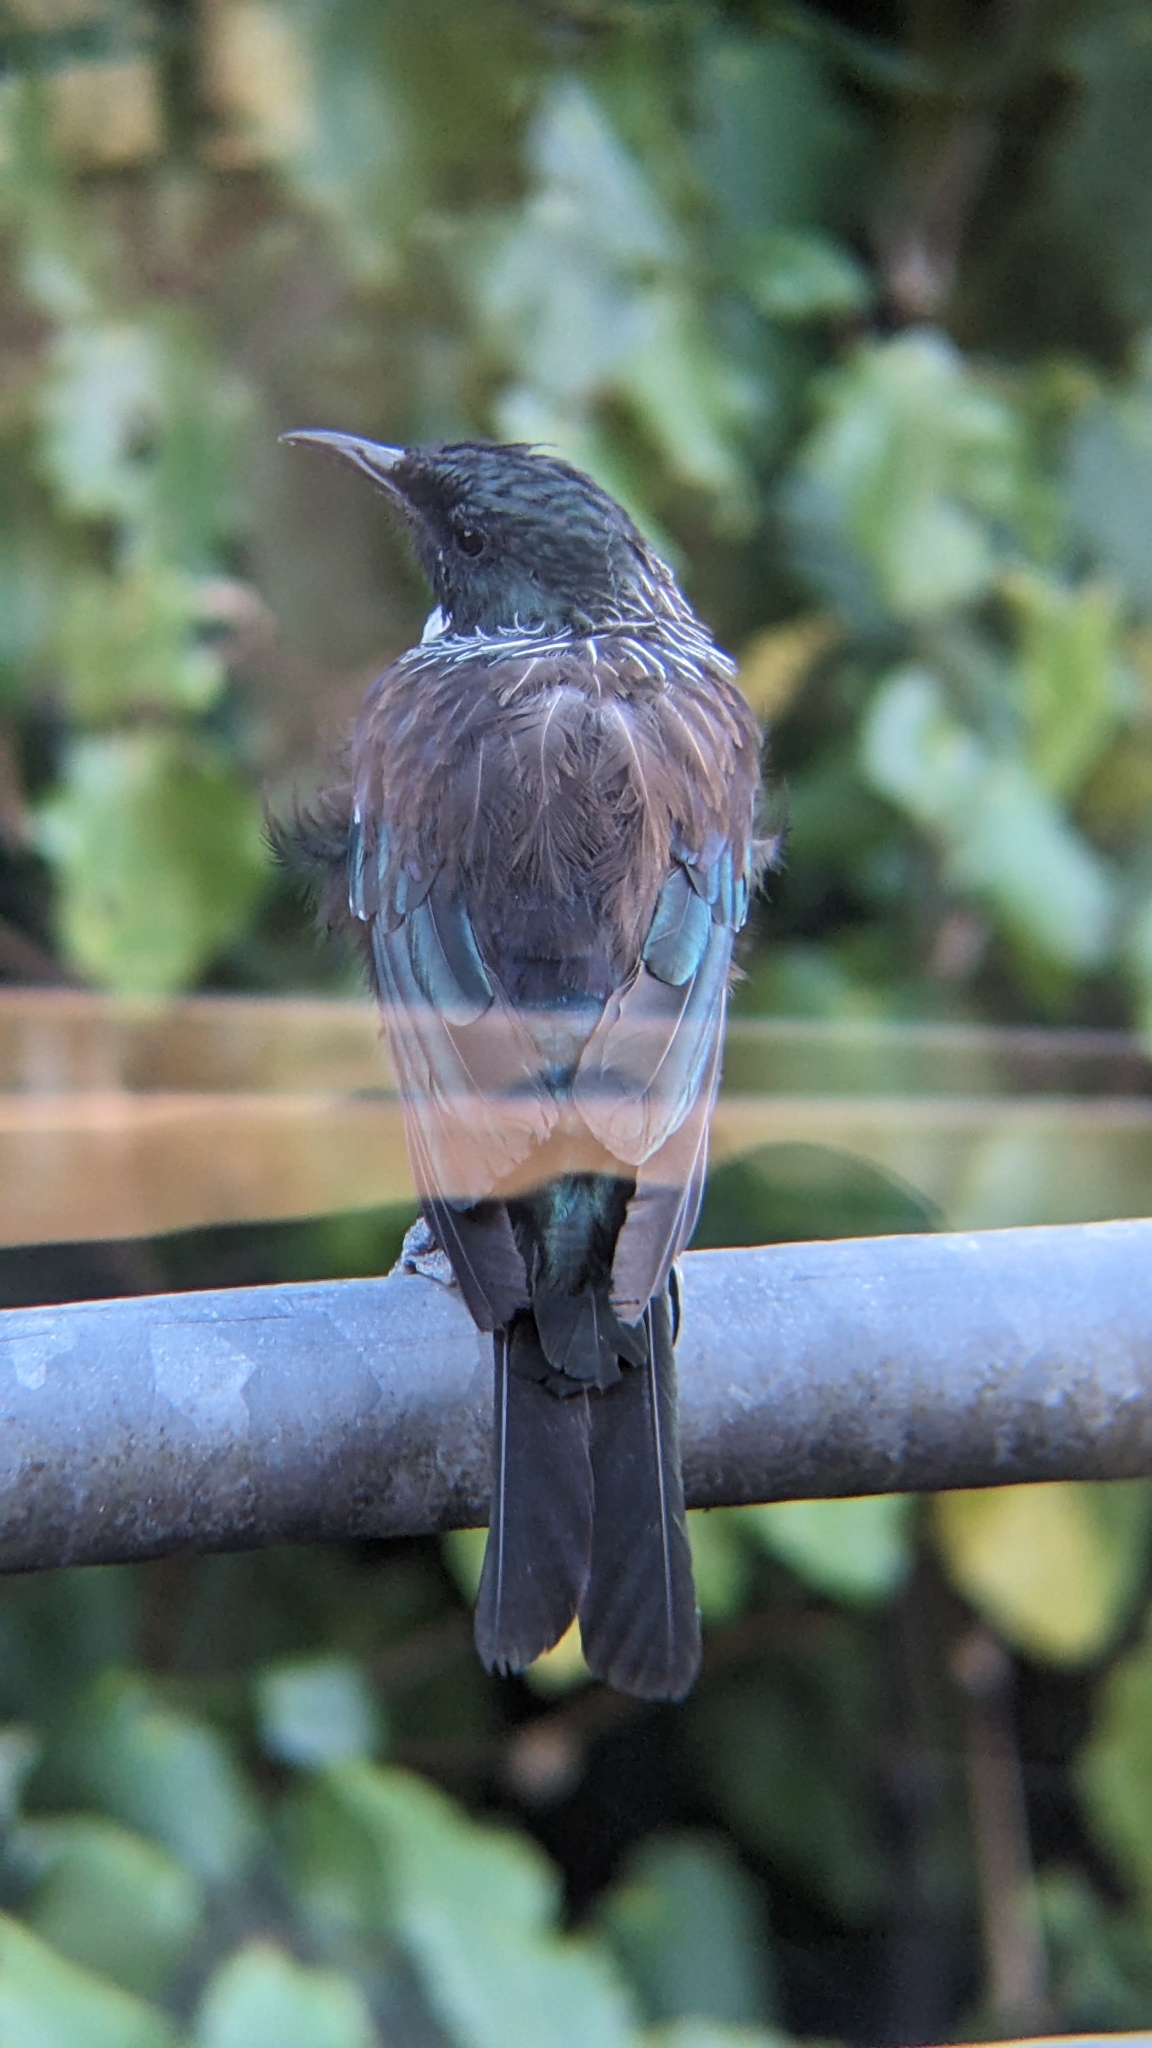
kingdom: Animalia
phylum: Chordata
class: Aves
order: Passeriformes
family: Meliphagidae
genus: Prosthemadera
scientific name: Prosthemadera novaeseelandiae
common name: Tui
